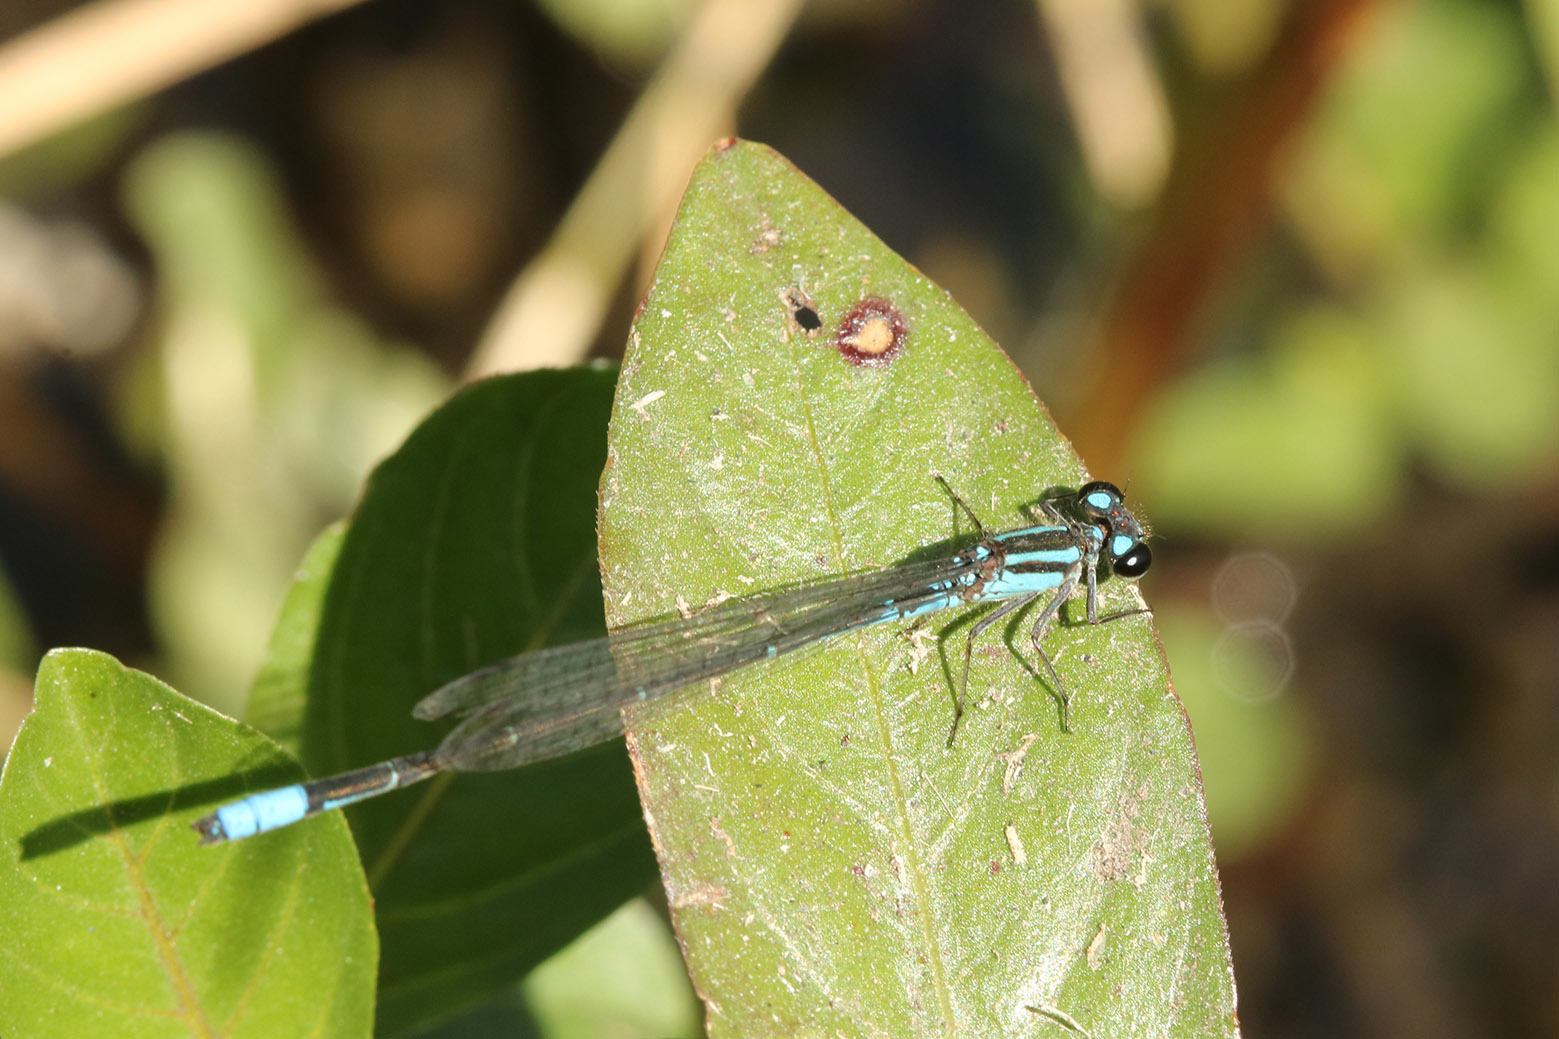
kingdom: Animalia
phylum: Arthropoda
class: Insecta
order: Odonata
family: Coenagrionidae
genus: Acanthagrion
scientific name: Acanthagrion lancea
